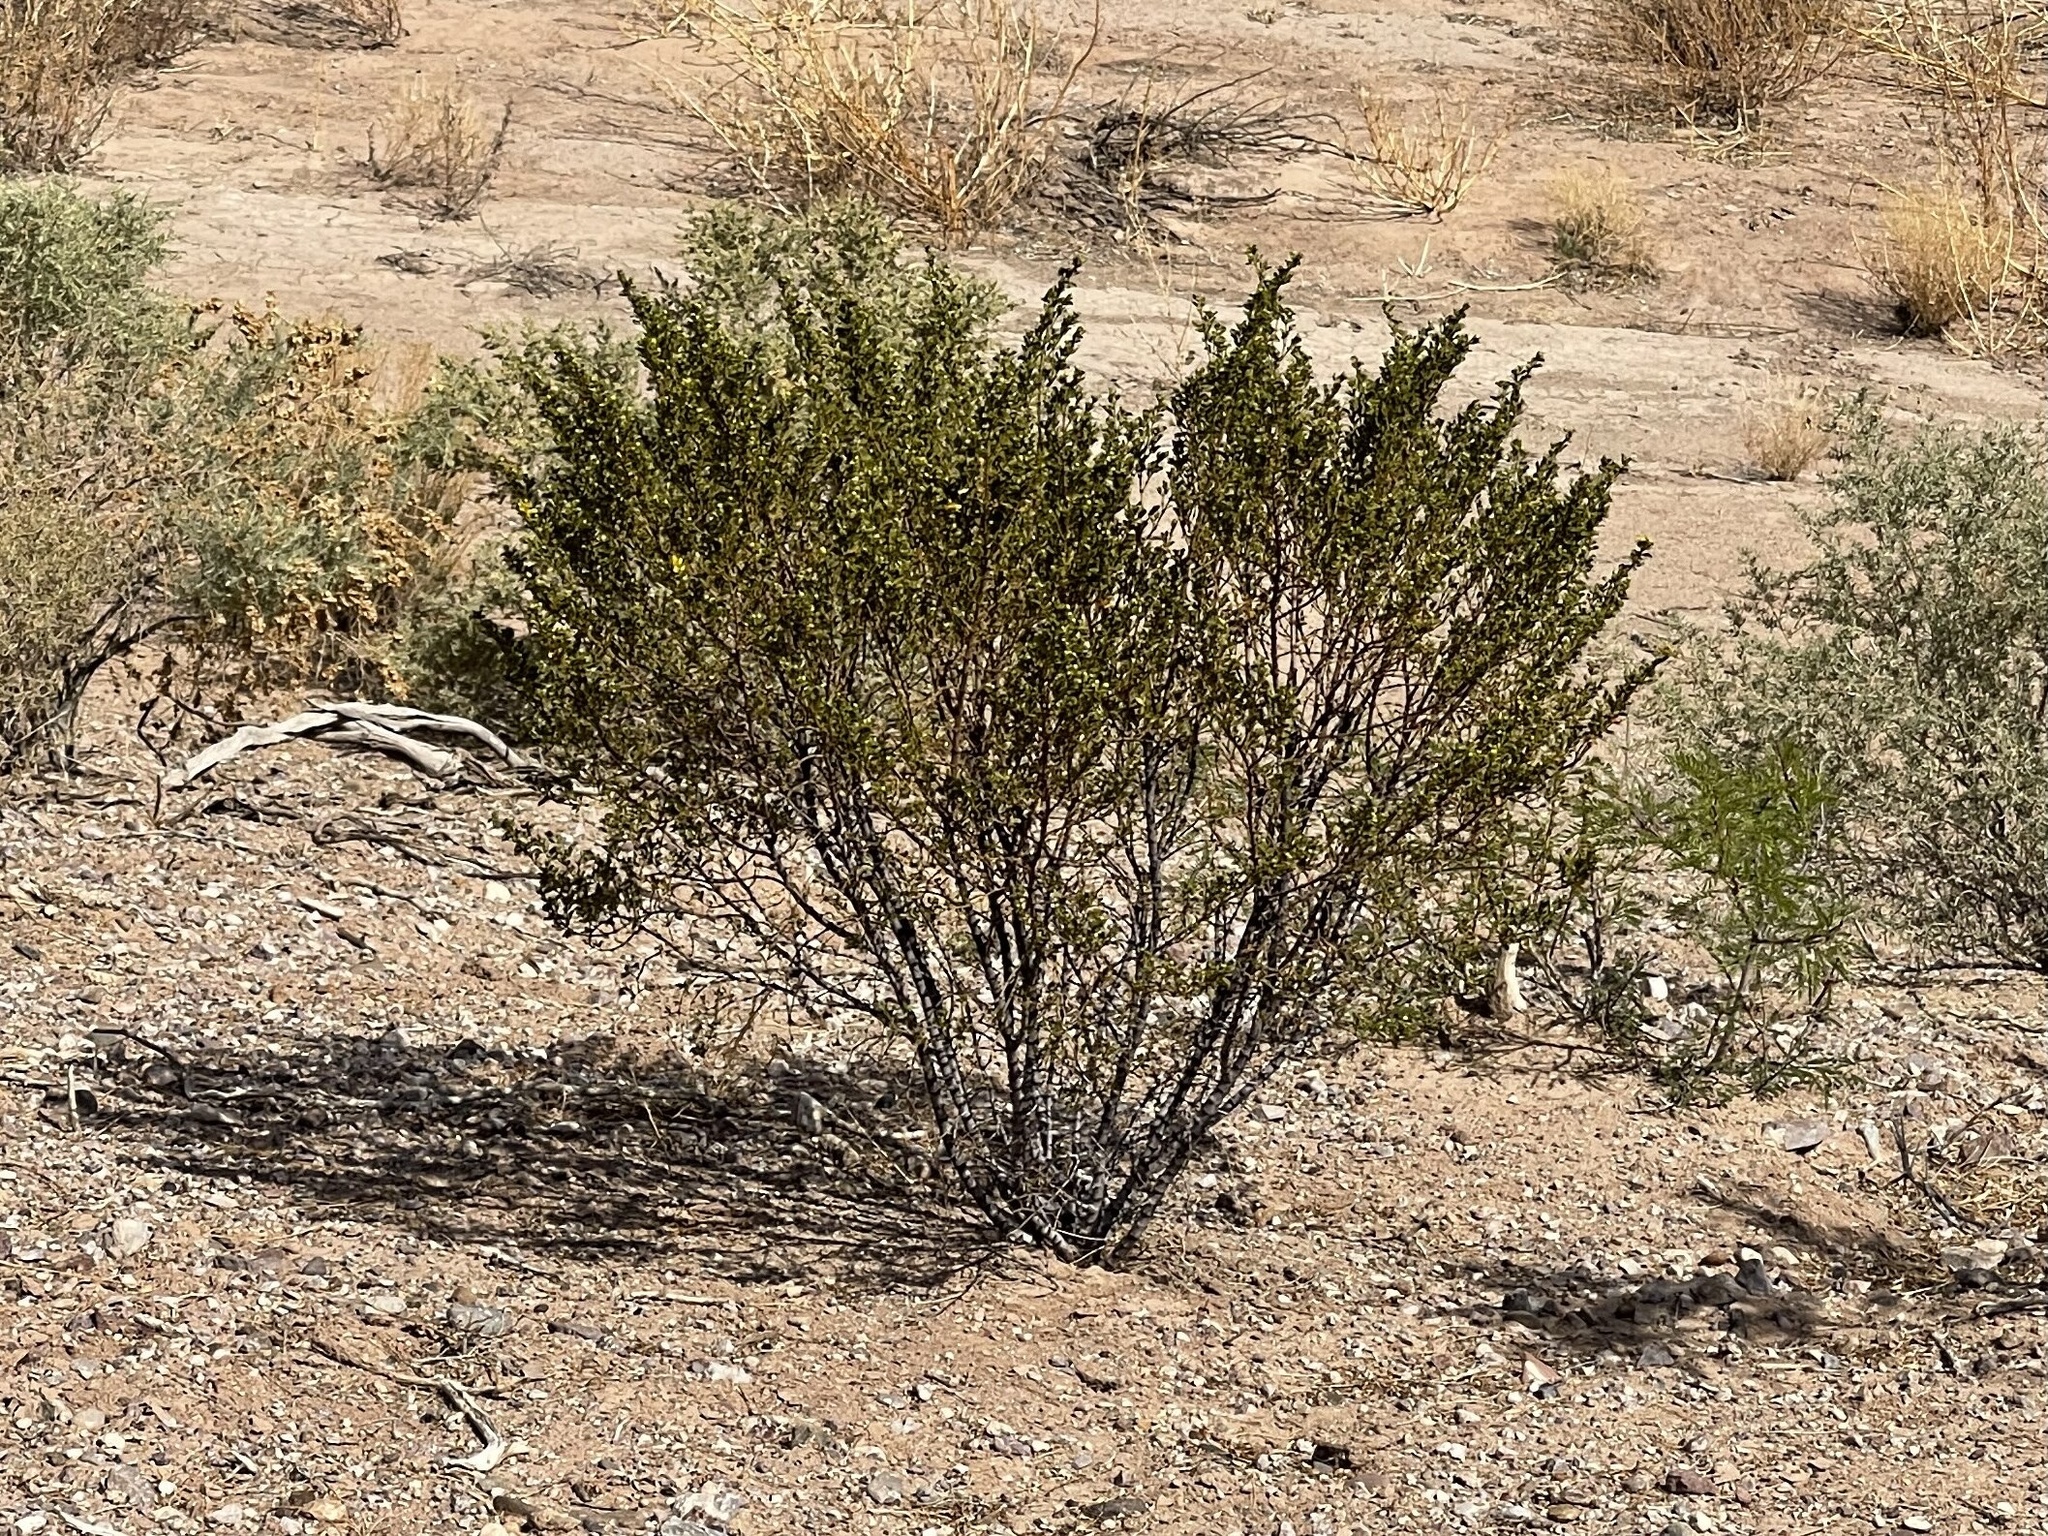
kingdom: Plantae
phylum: Tracheophyta
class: Magnoliopsida
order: Zygophyllales
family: Zygophyllaceae
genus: Larrea
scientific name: Larrea tridentata
